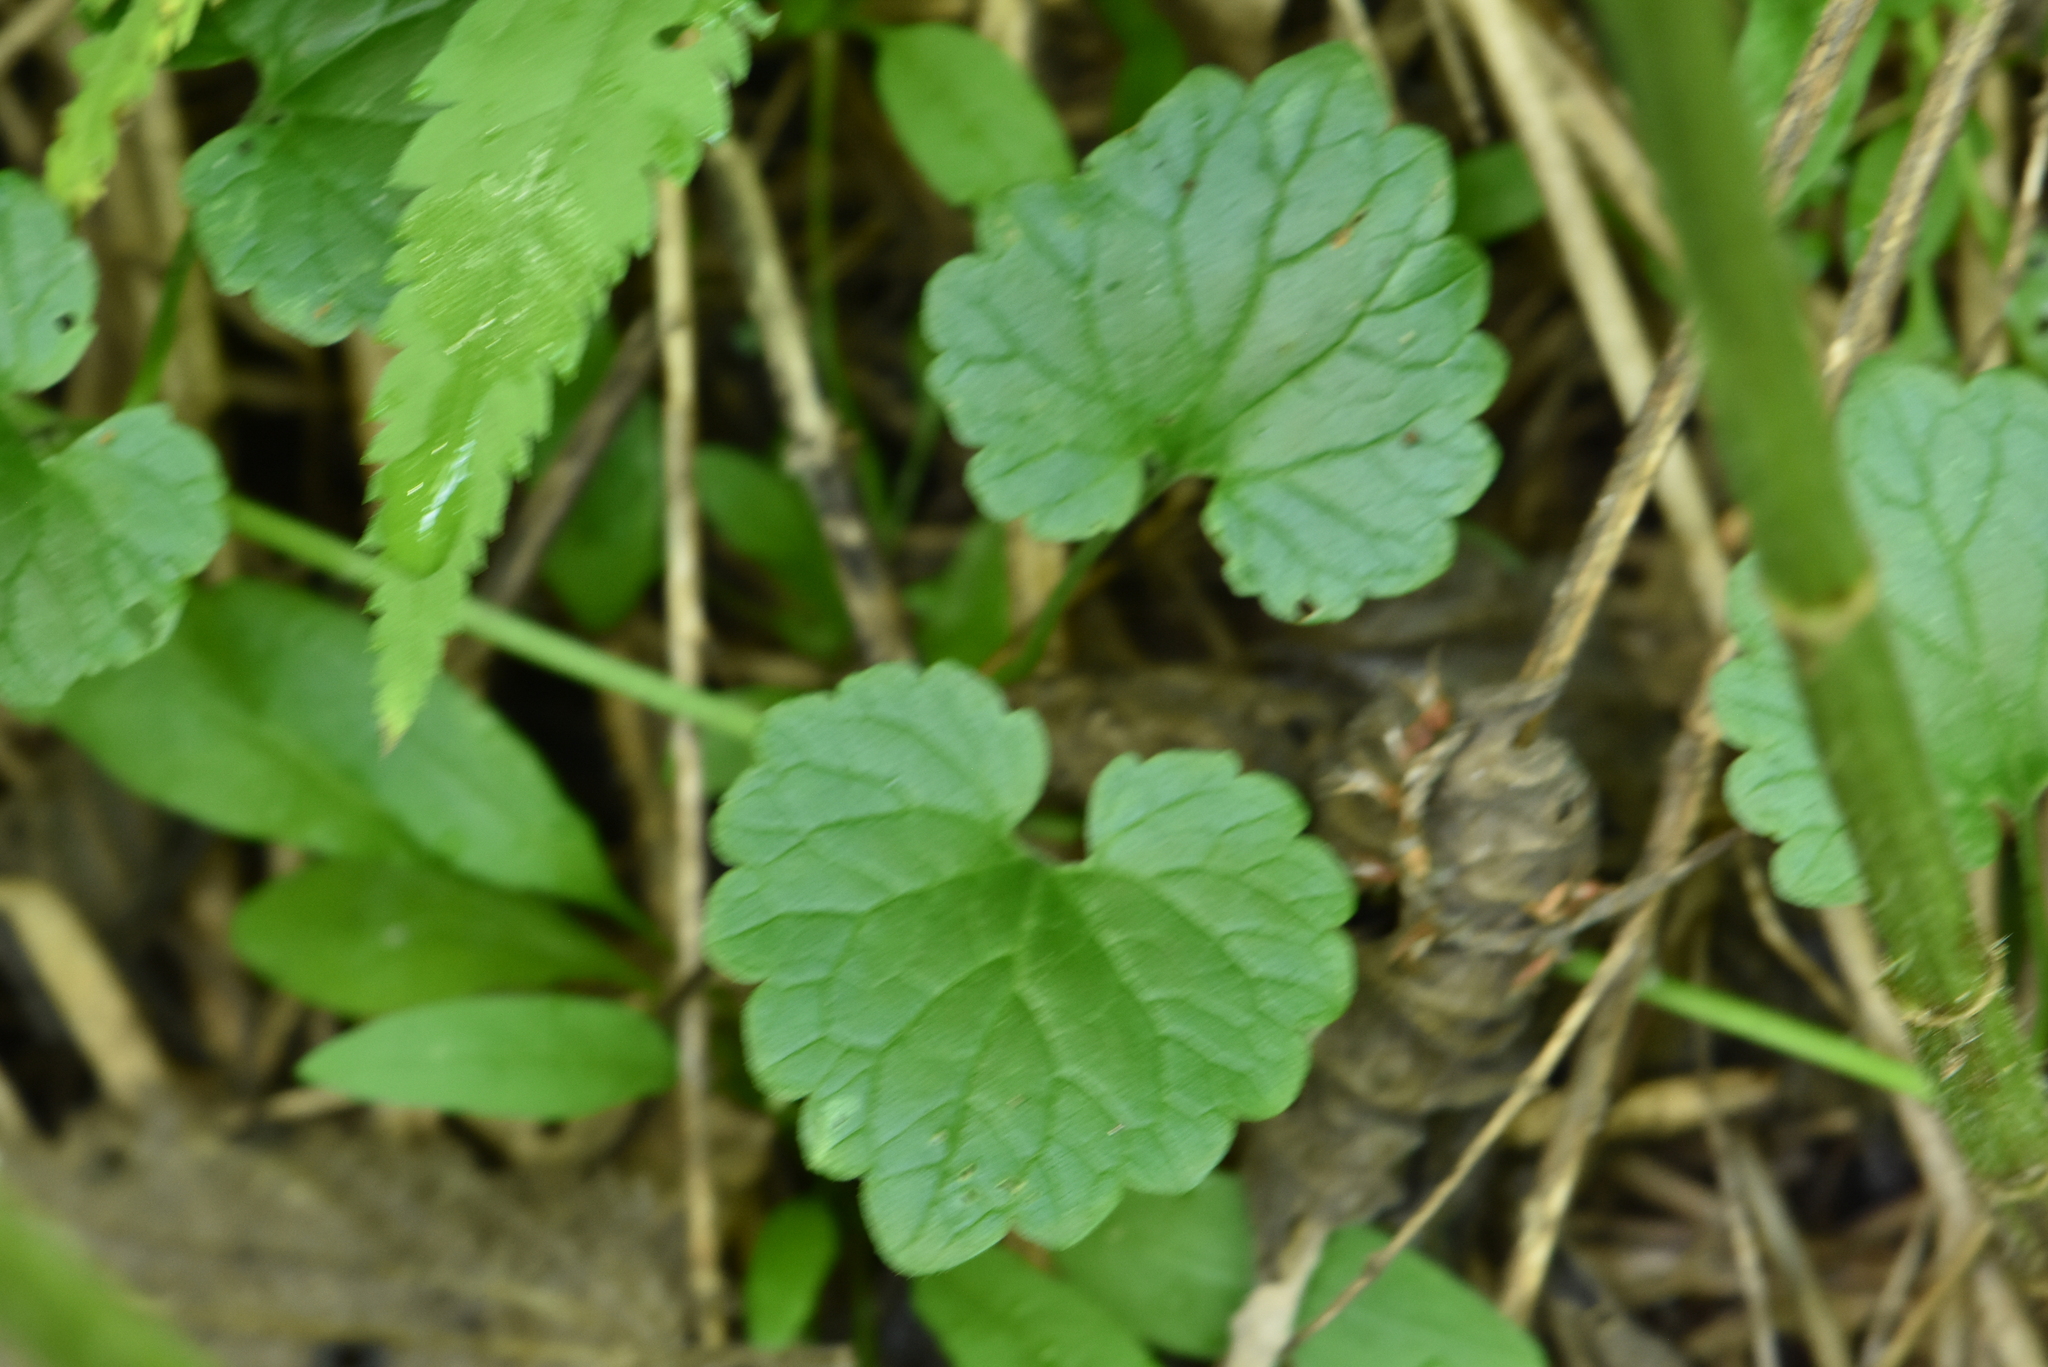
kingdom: Plantae
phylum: Tracheophyta
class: Magnoliopsida
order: Lamiales
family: Lamiaceae
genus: Glechoma
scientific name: Glechoma hederacea
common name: Ground ivy
